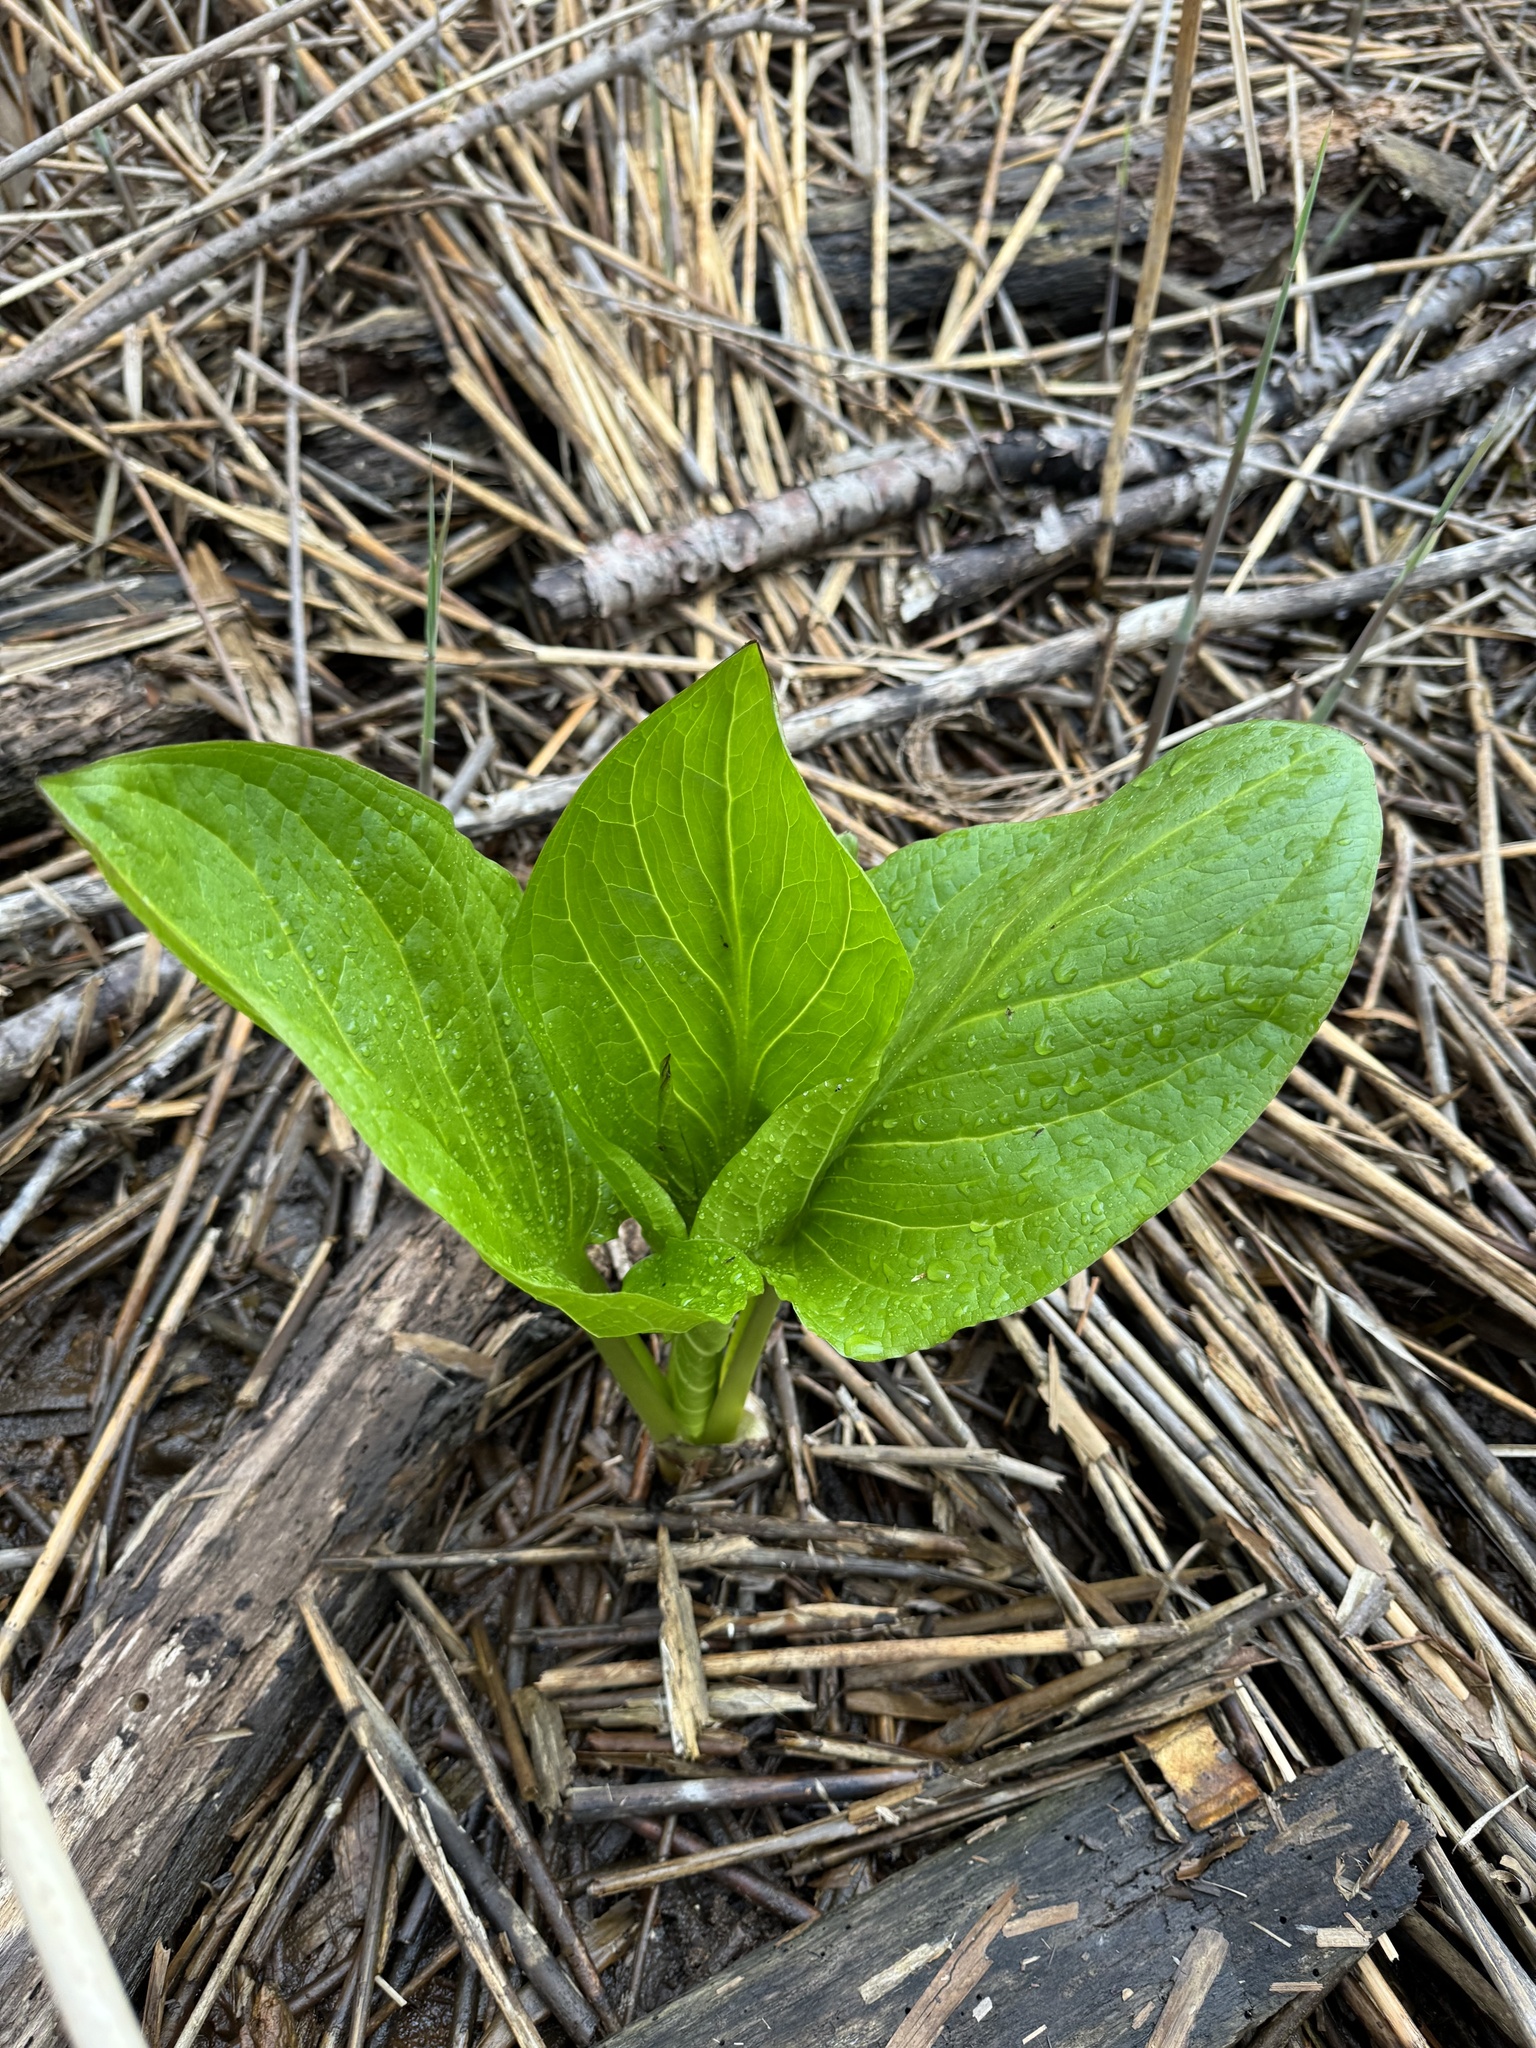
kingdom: Plantae
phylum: Tracheophyta
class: Liliopsida
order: Alismatales
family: Araceae
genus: Symplocarpus
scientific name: Symplocarpus foetidus
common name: Eastern skunk cabbage
